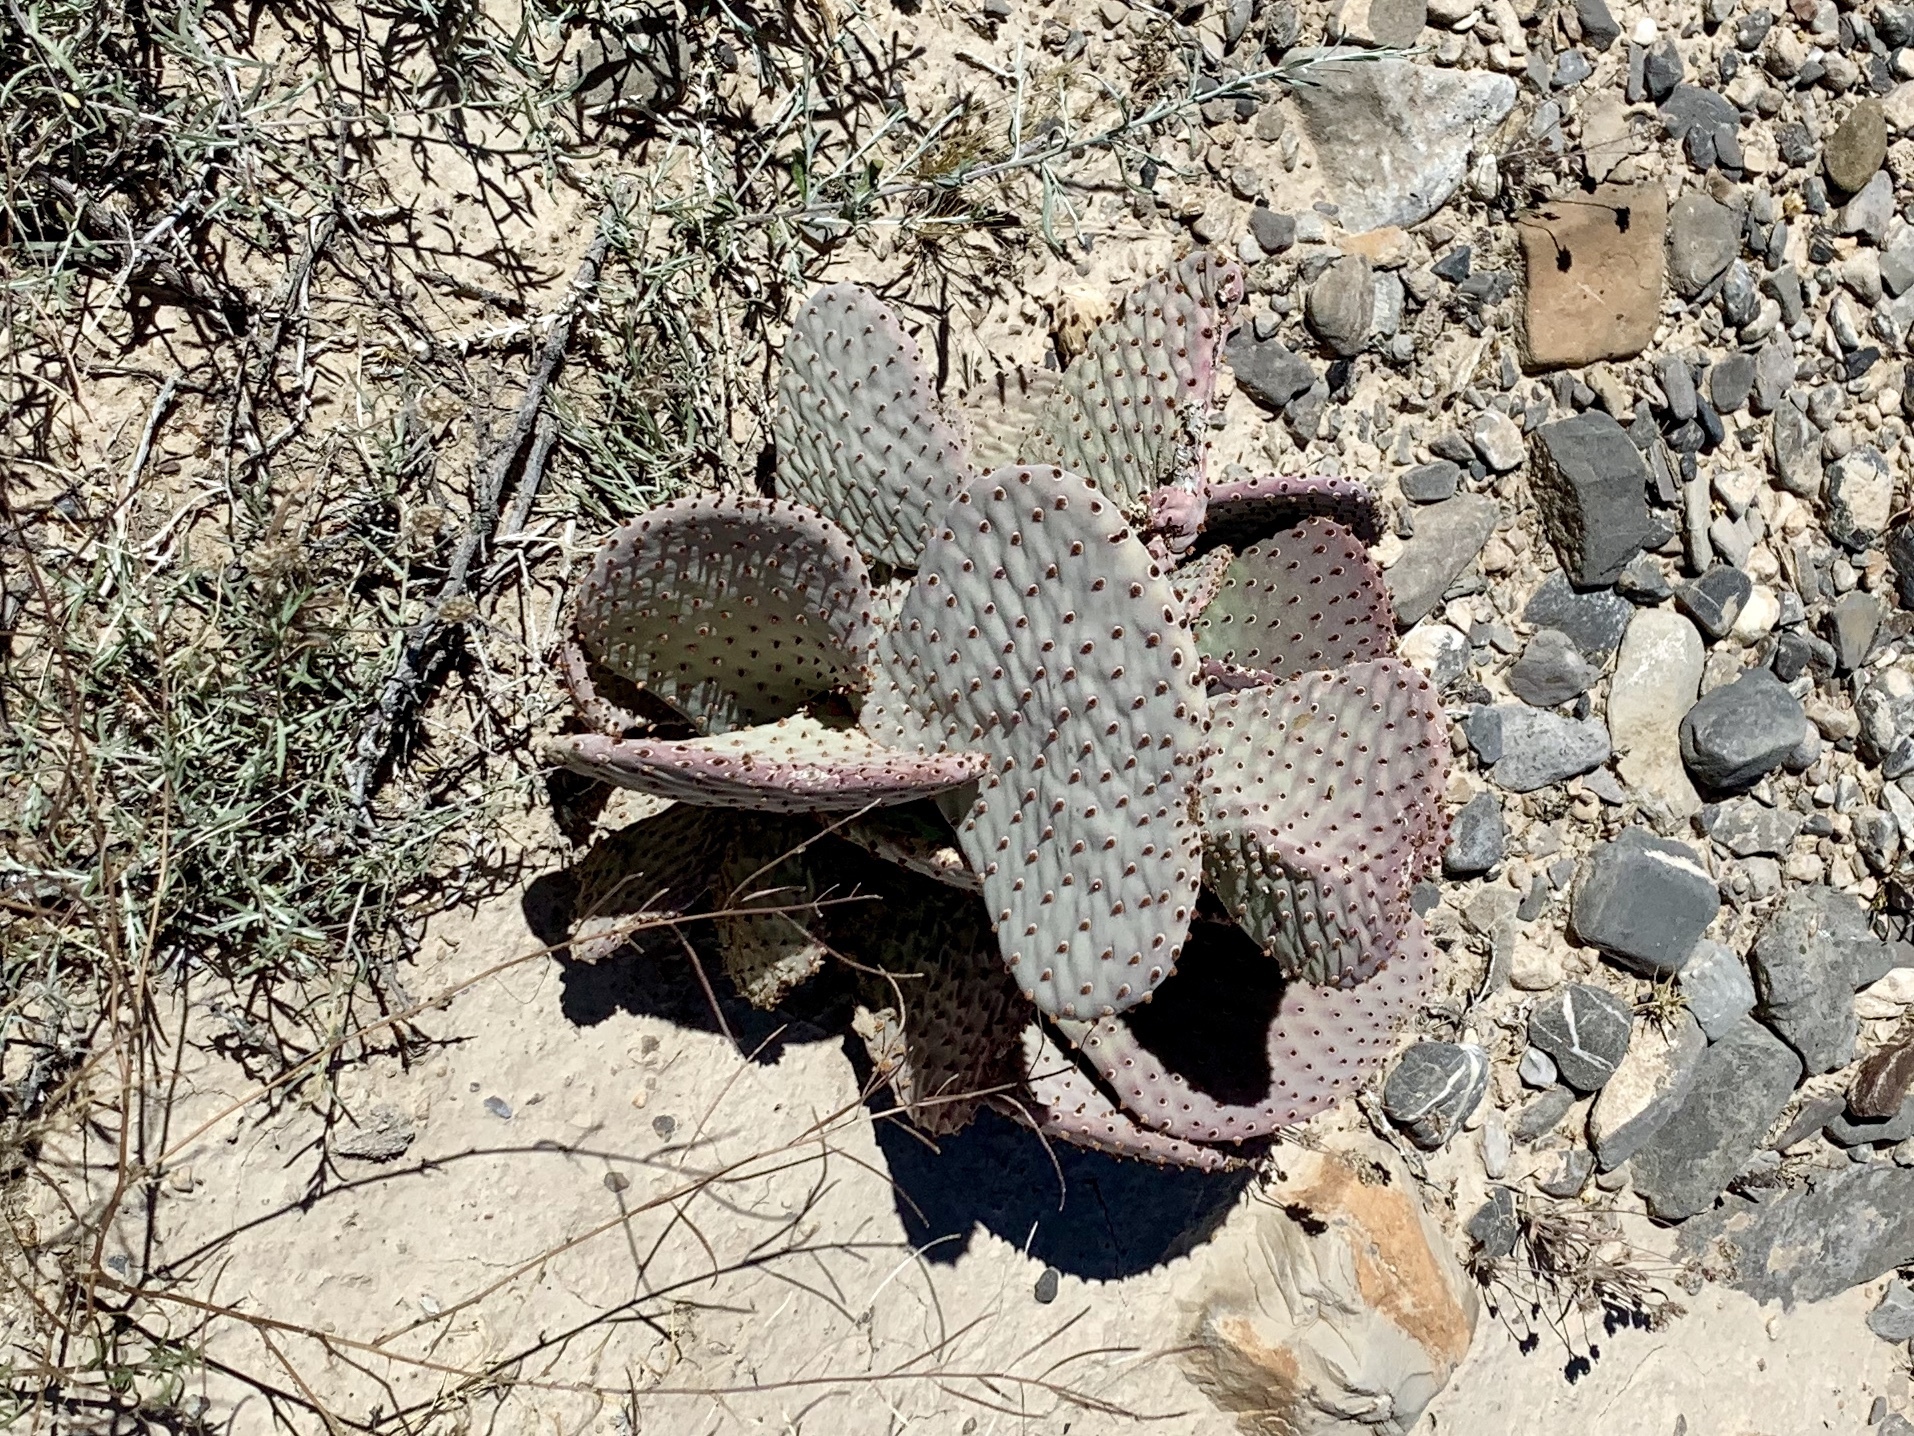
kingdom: Plantae
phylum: Tracheophyta
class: Magnoliopsida
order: Caryophyllales
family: Cactaceae
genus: Opuntia
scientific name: Opuntia basilaris
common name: Beavertail prickly-pear
